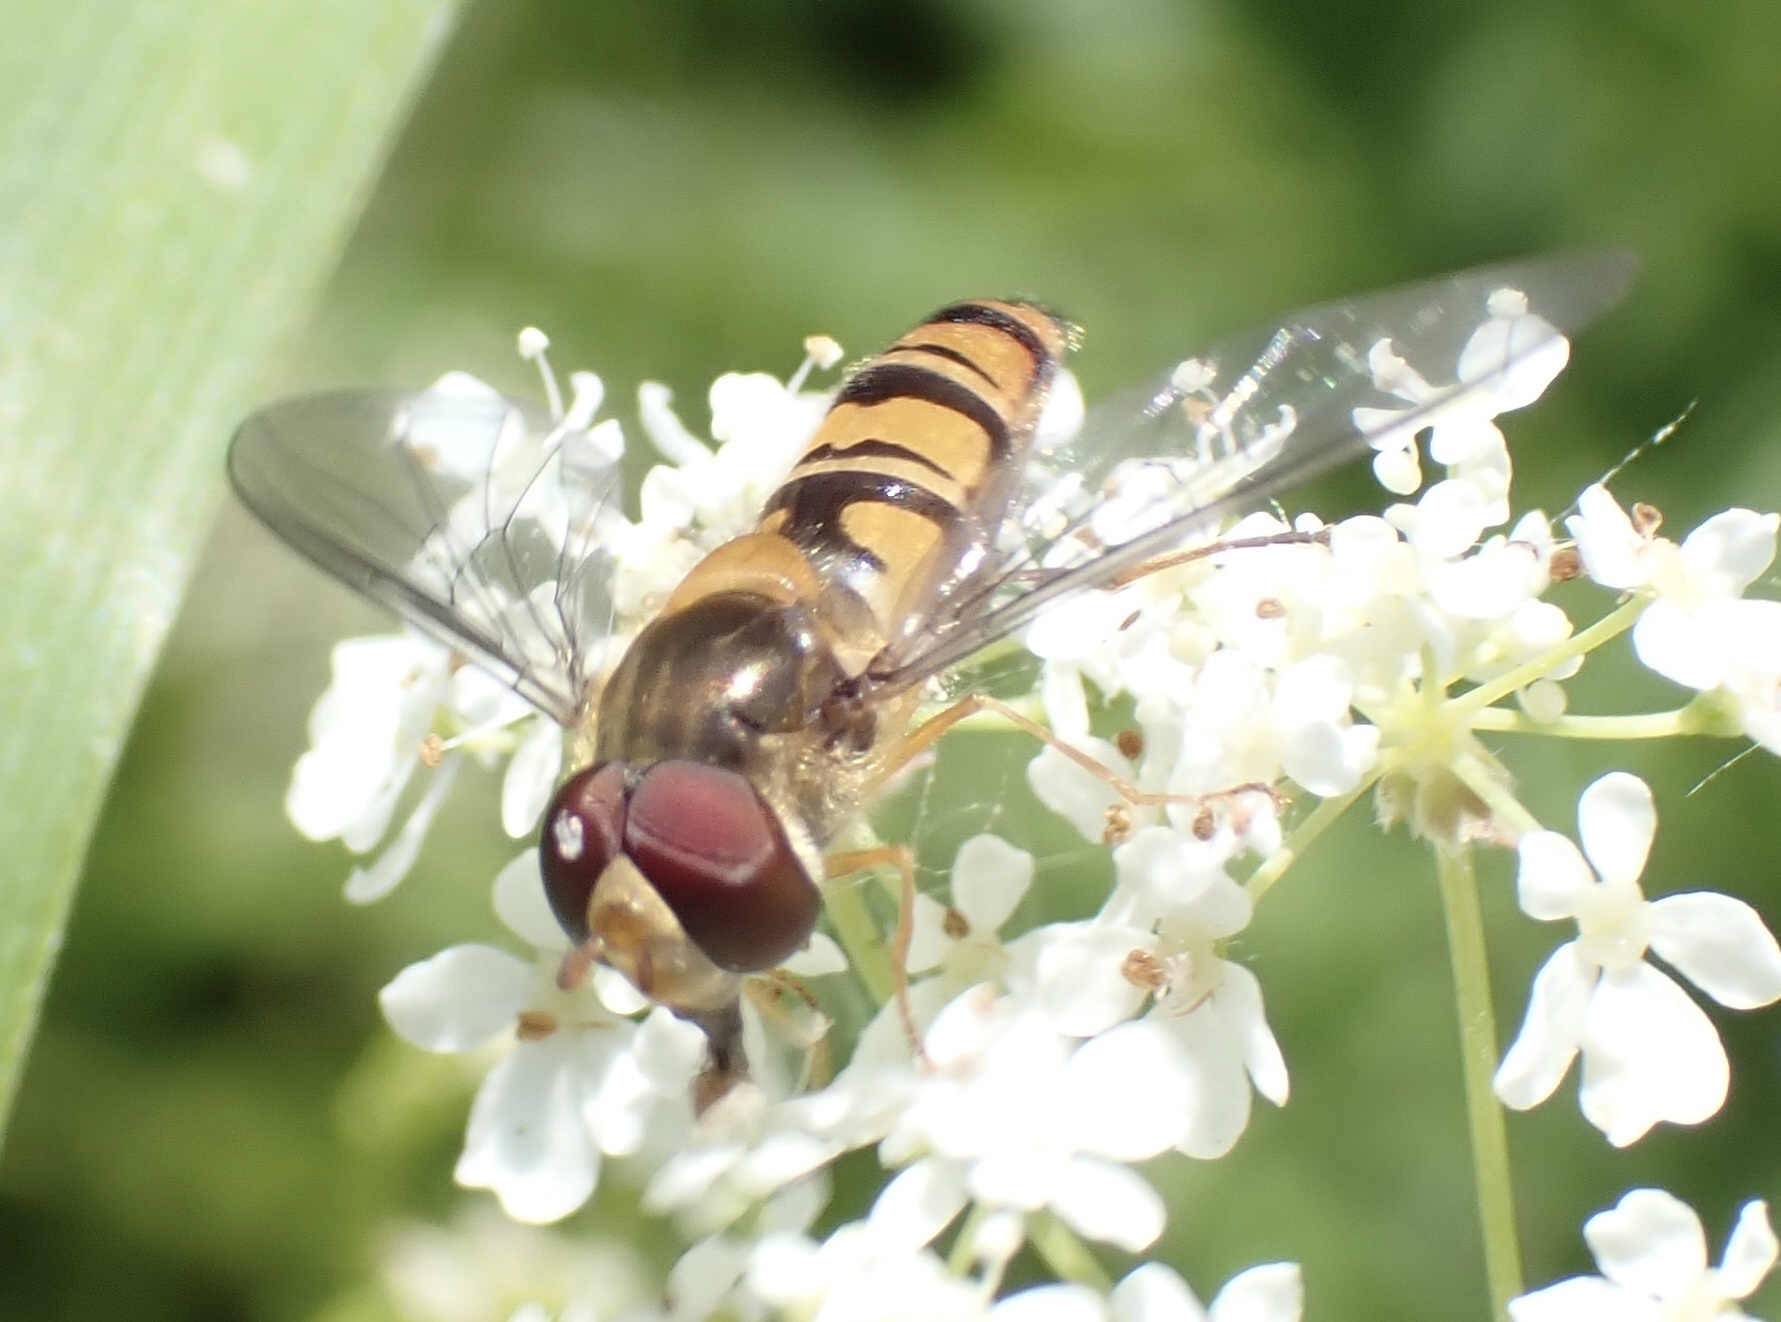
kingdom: Animalia
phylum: Arthropoda
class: Insecta
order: Diptera
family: Syrphidae
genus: Episyrphus
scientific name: Episyrphus balteatus
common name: Marmalade hoverfly
